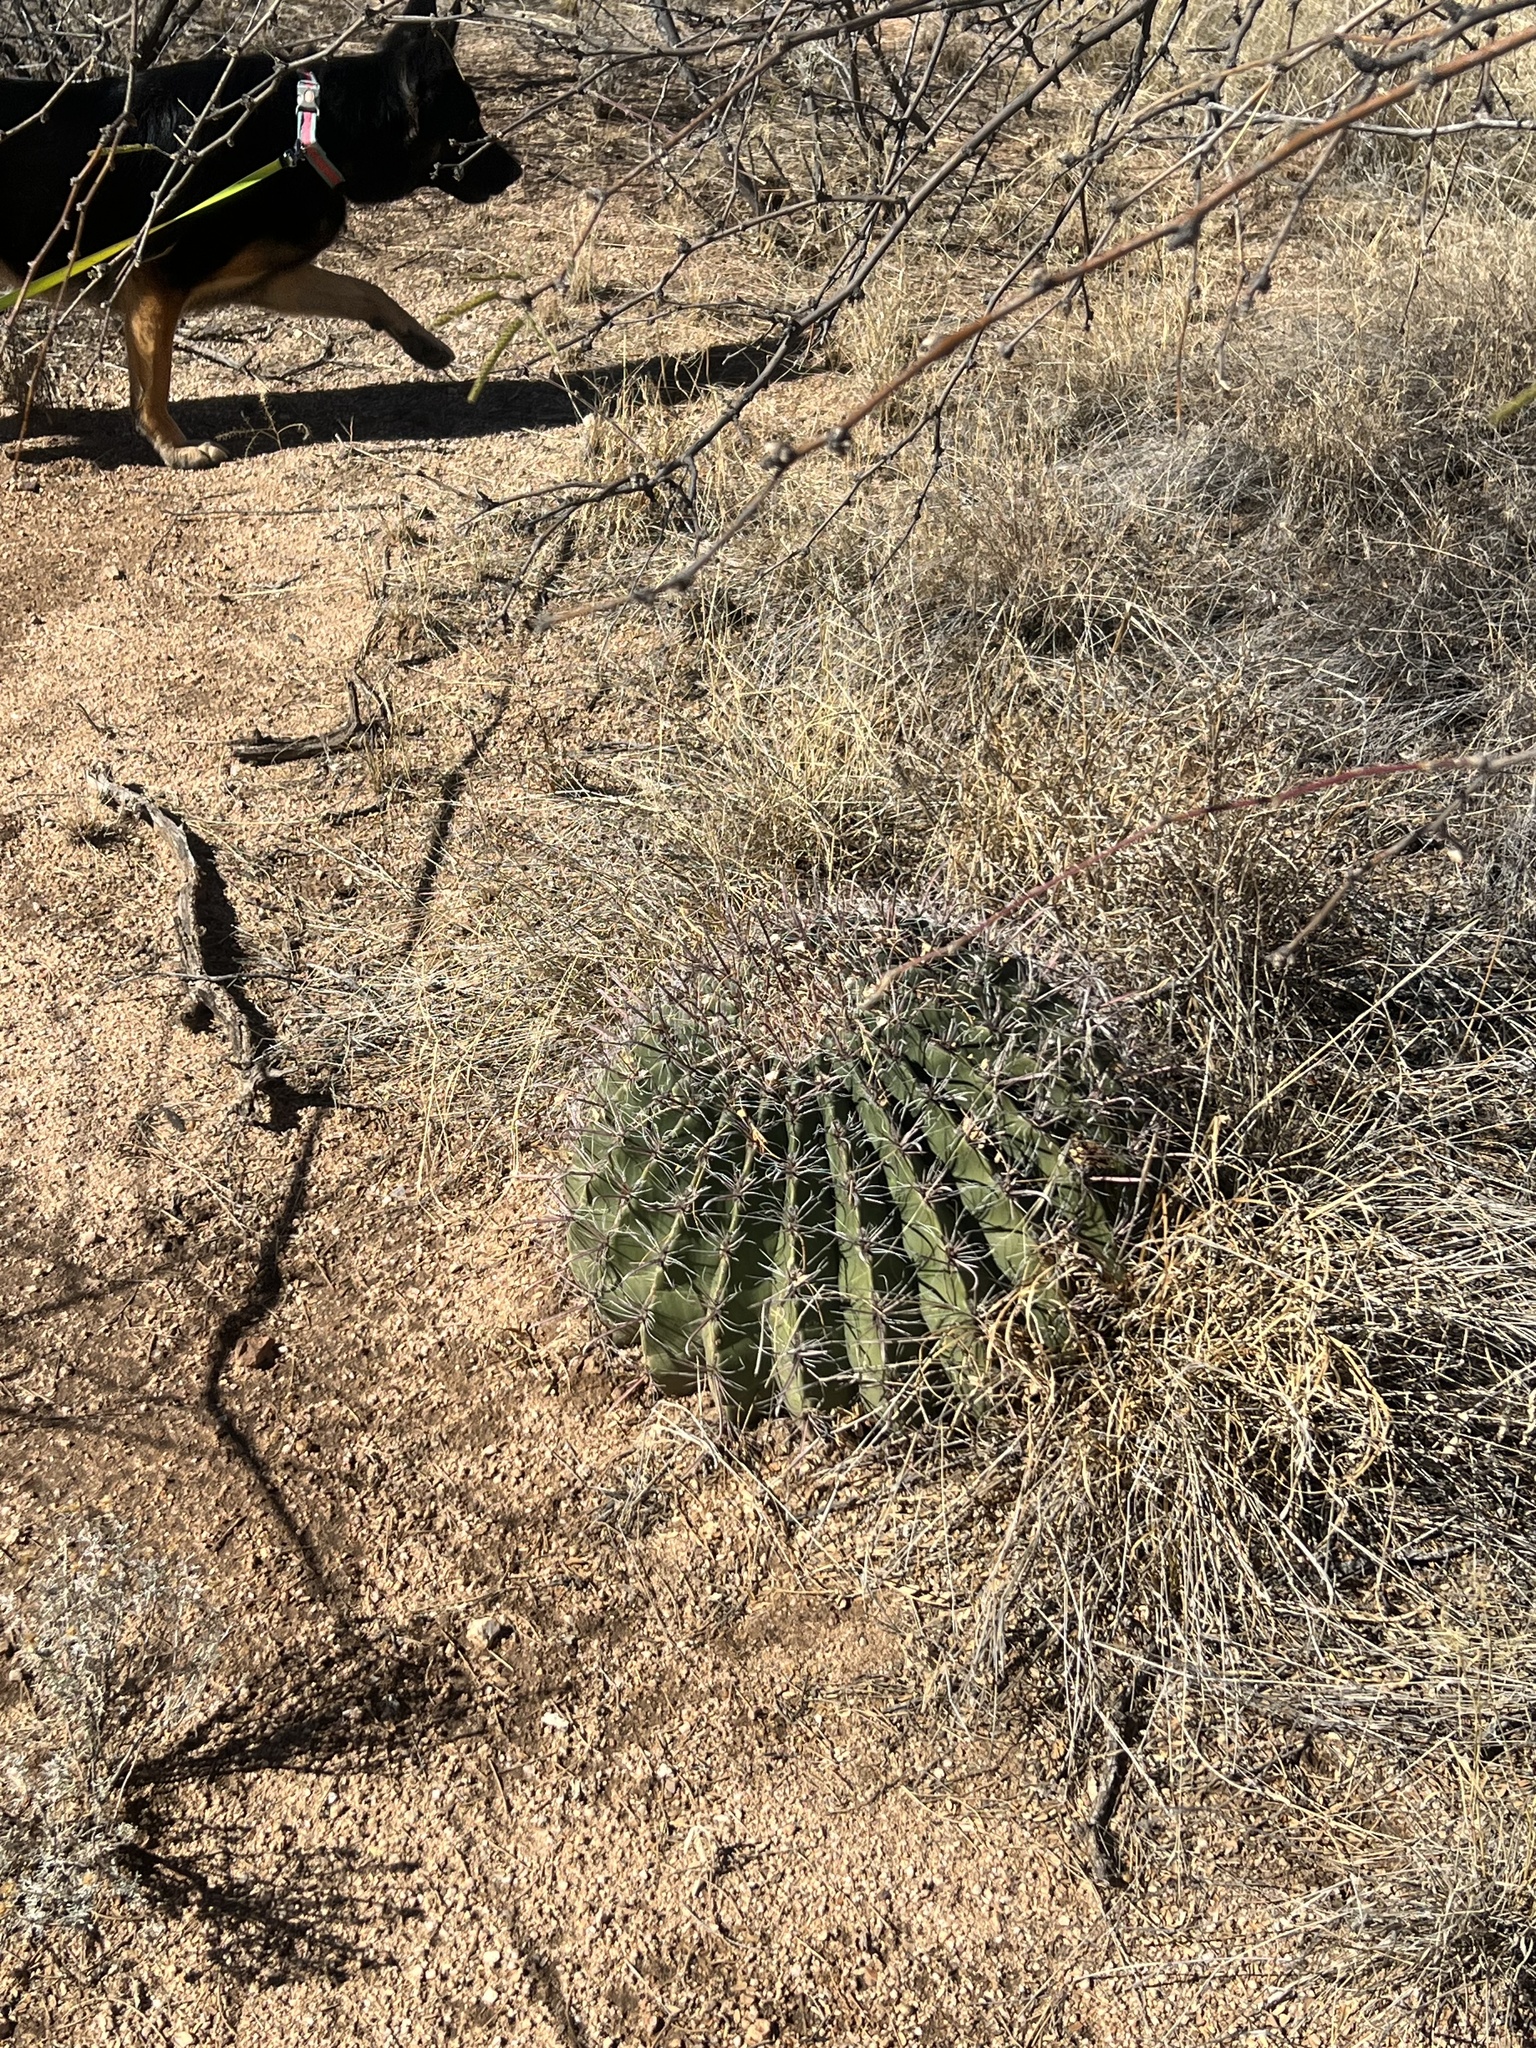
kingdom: Plantae
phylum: Tracheophyta
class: Magnoliopsida
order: Caryophyllales
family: Cactaceae
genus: Ferocactus
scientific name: Ferocactus wislizeni
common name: Candy barrel cactus
